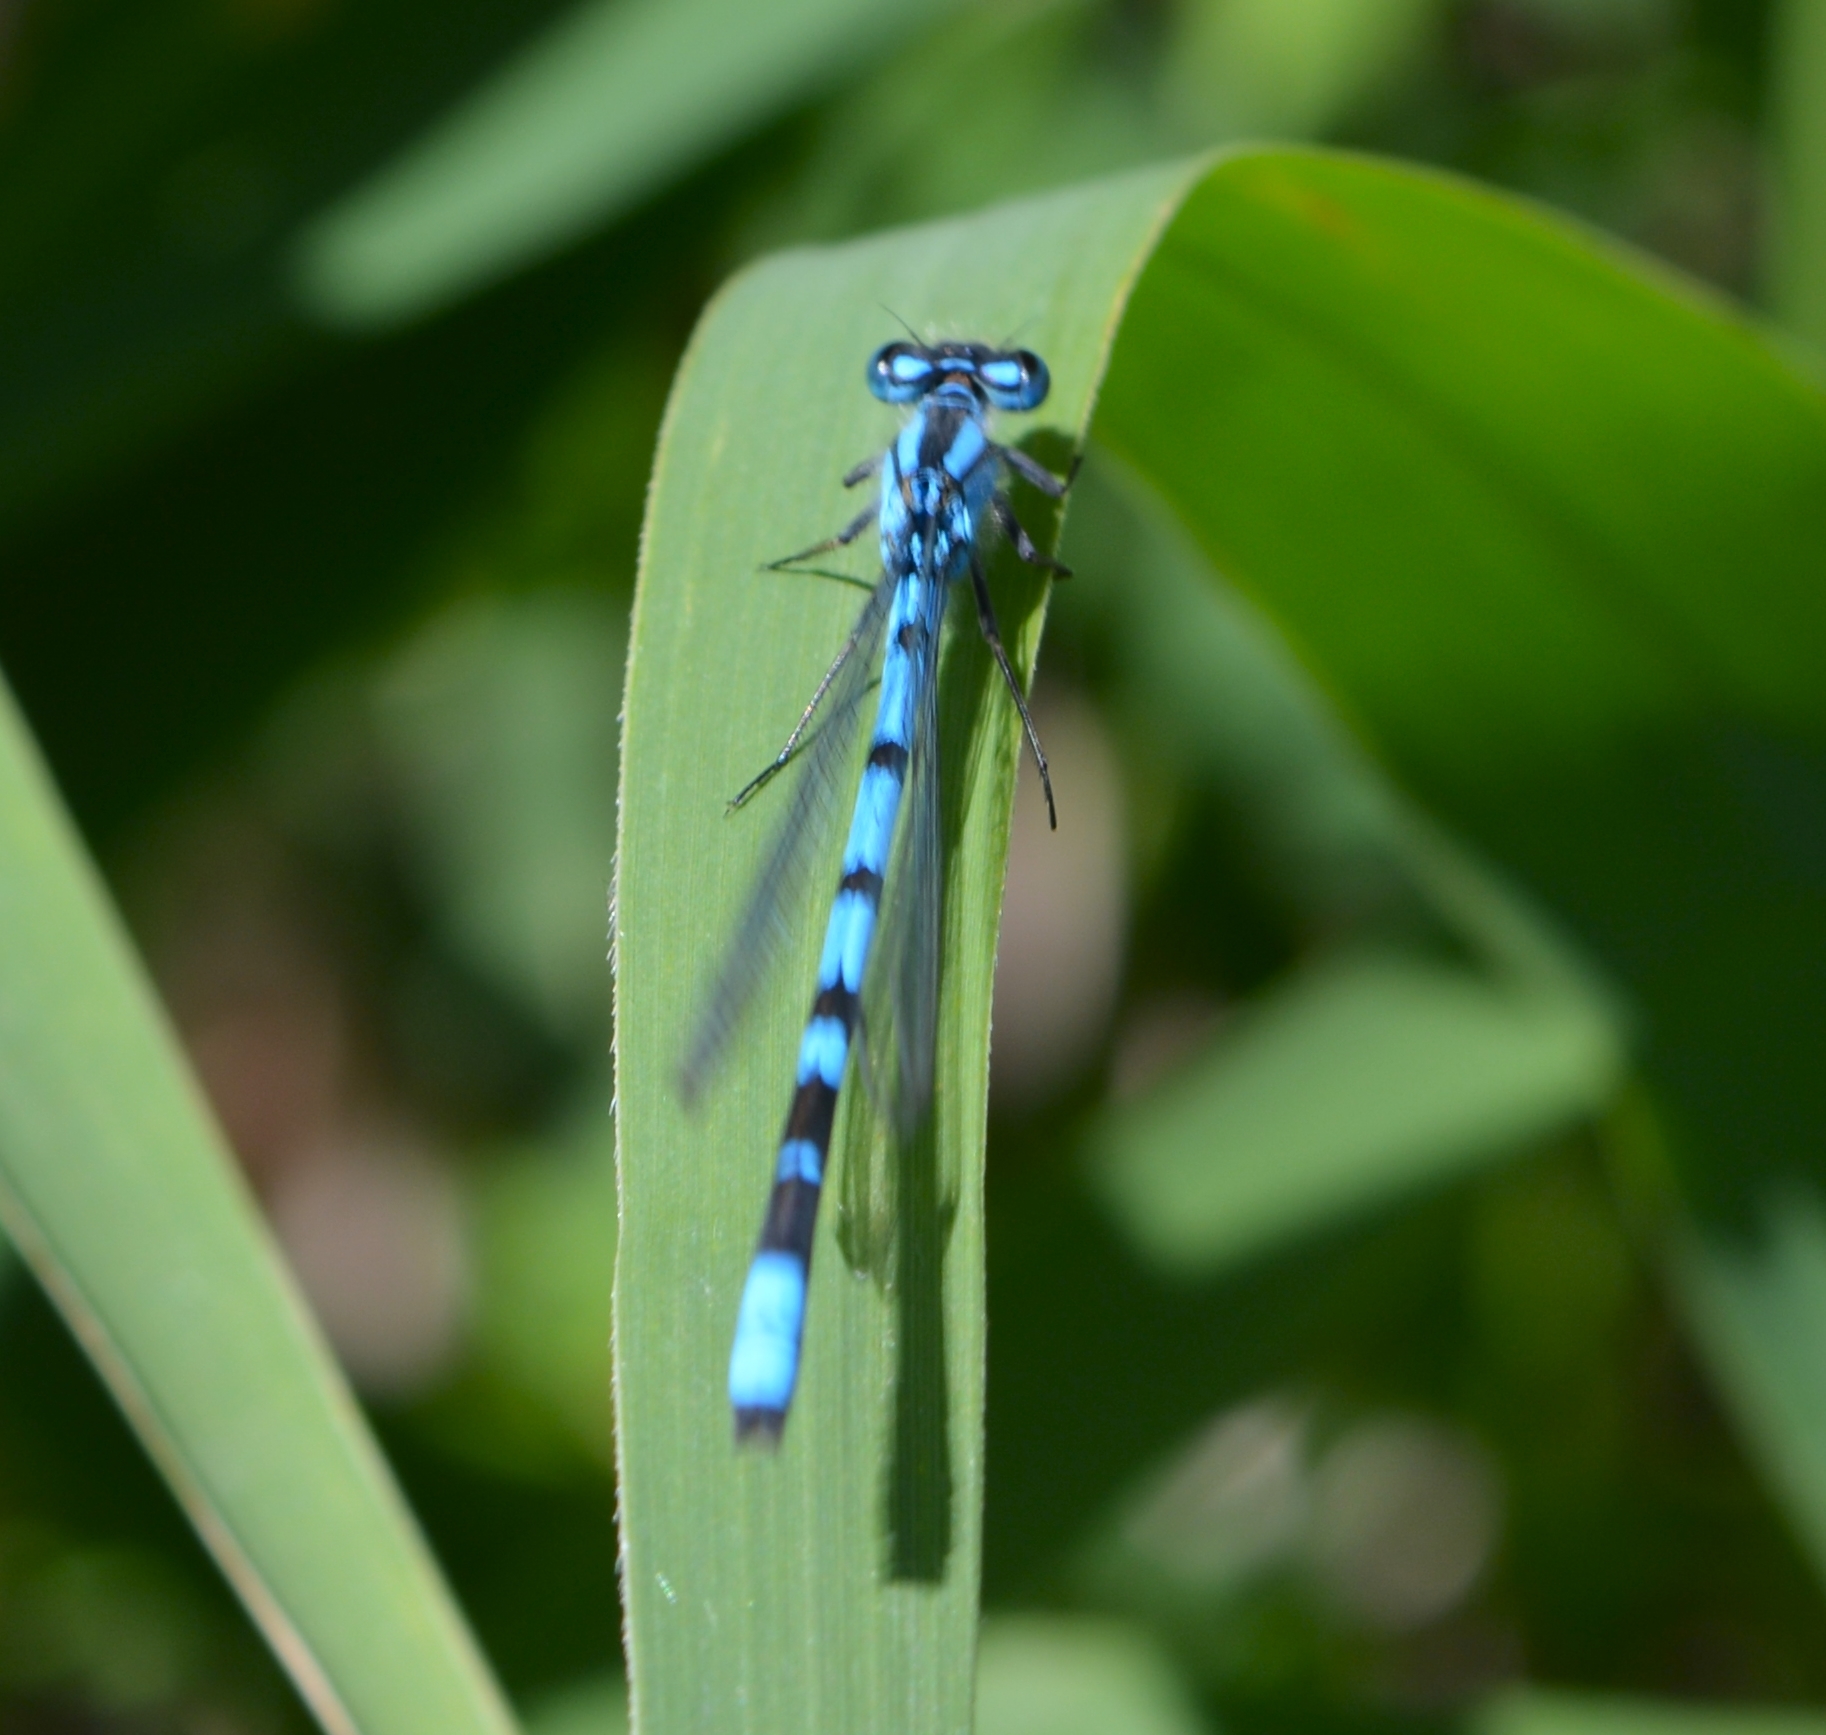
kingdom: Animalia
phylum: Arthropoda
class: Insecta
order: Odonata
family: Coenagrionidae
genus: Enallagma
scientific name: Enallagma cyathigerum
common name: Common blue damselfly
